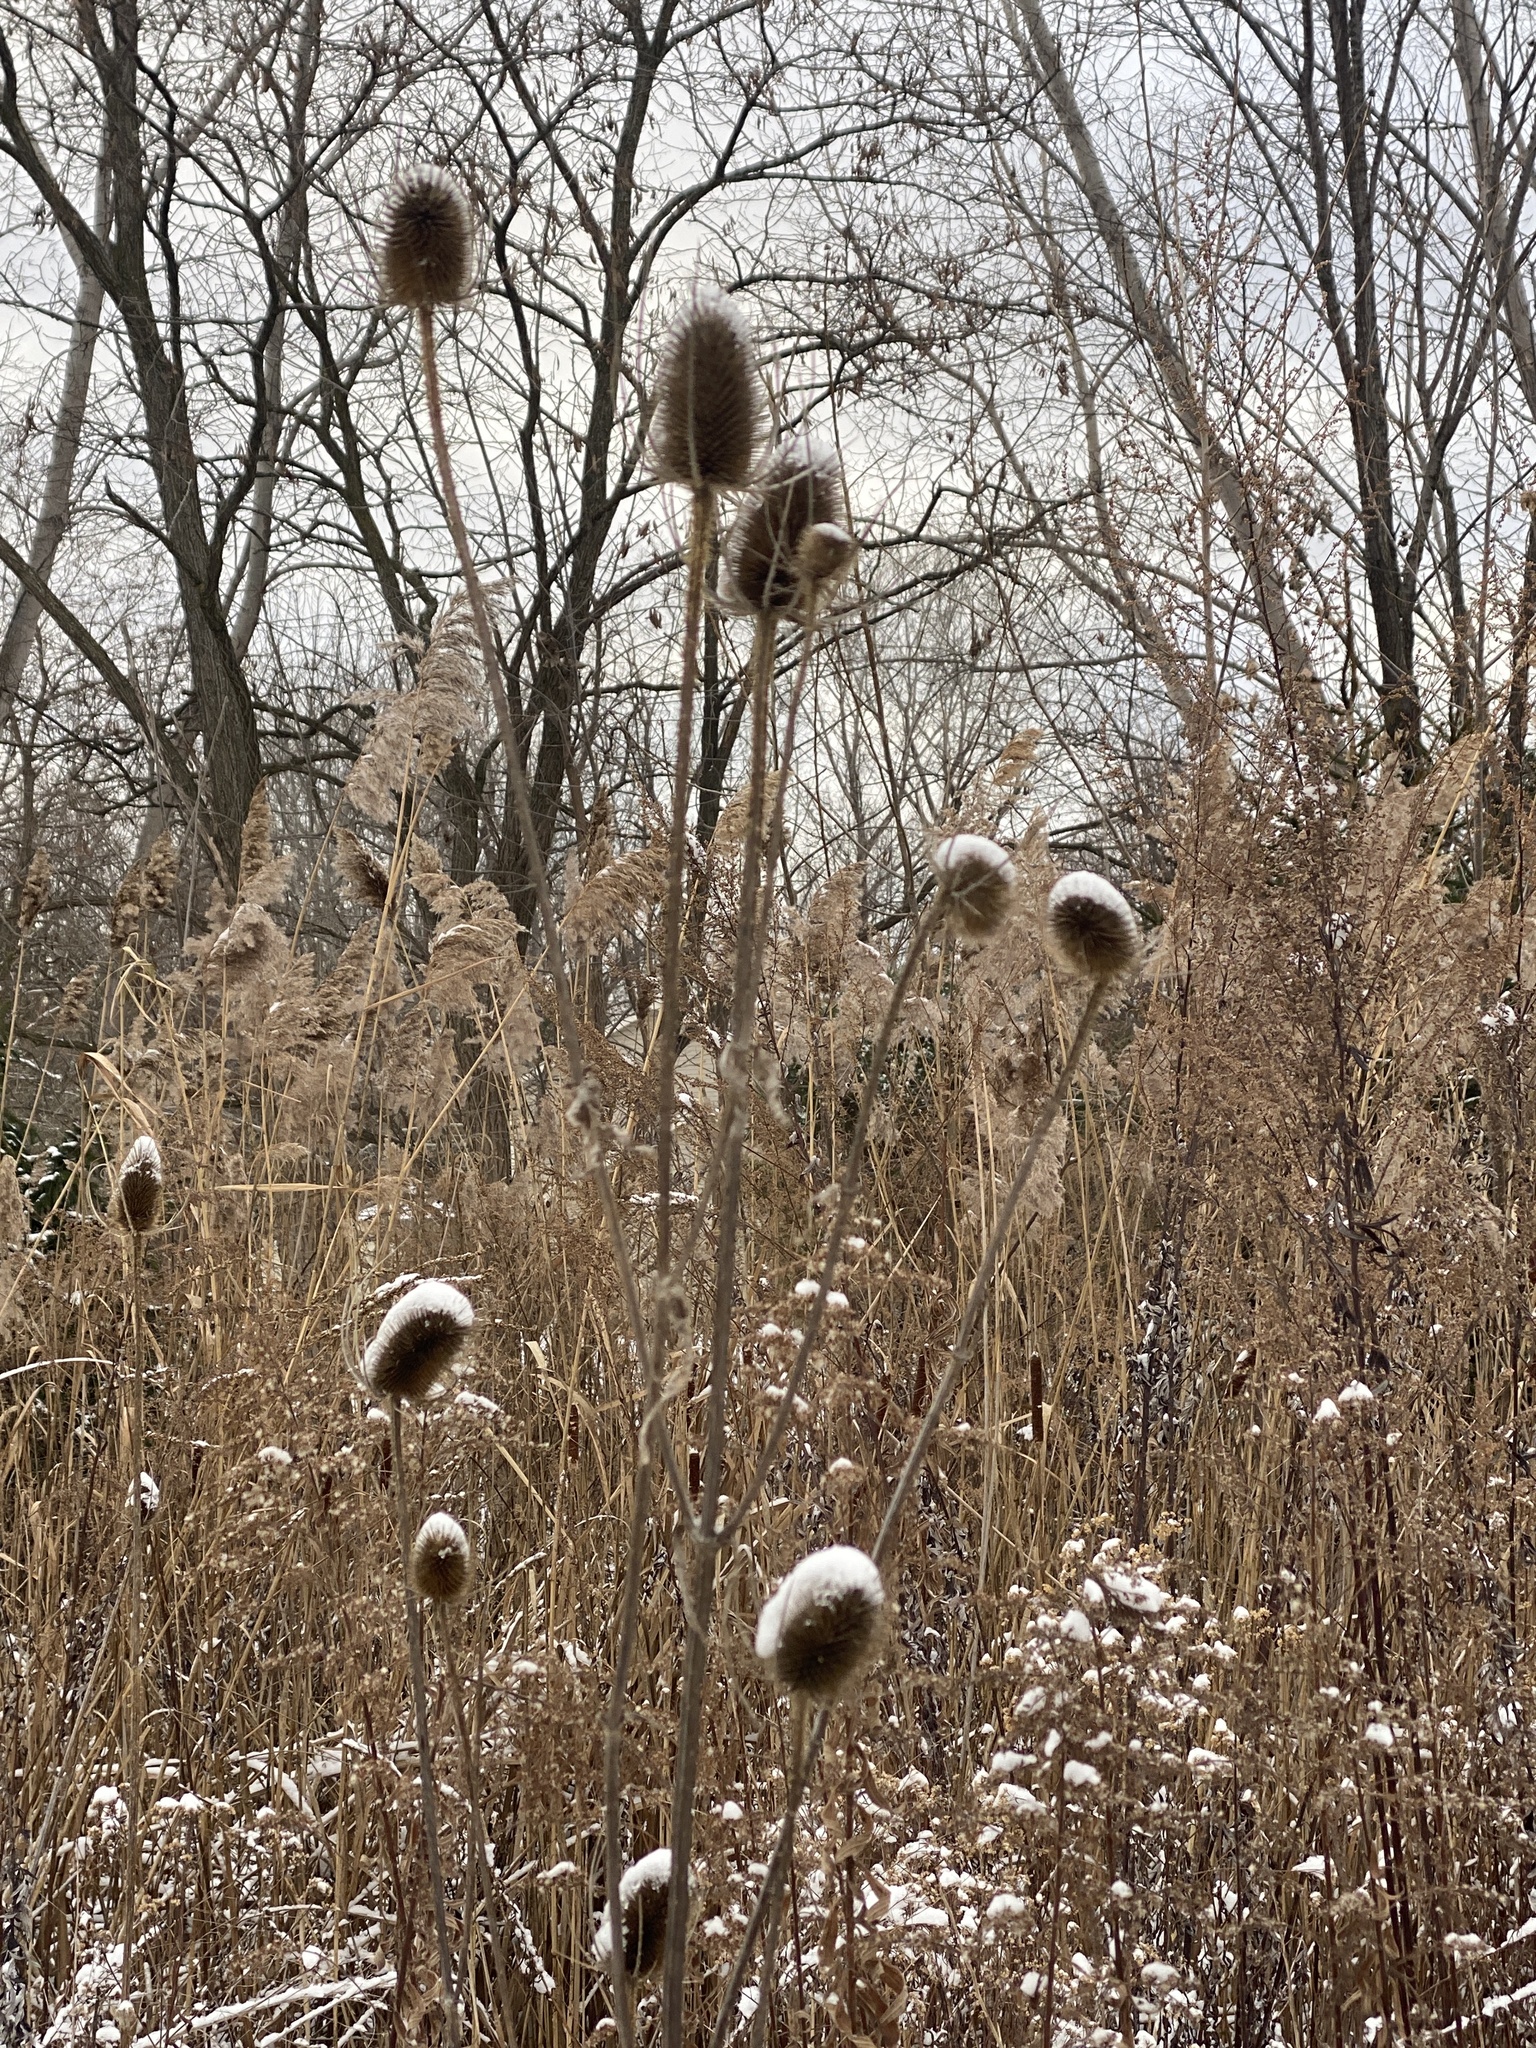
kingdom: Plantae
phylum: Tracheophyta
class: Magnoliopsida
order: Dipsacales
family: Caprifoliaceae
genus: Dipsacus
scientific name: Dipsacus fullonum
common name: Teasel
